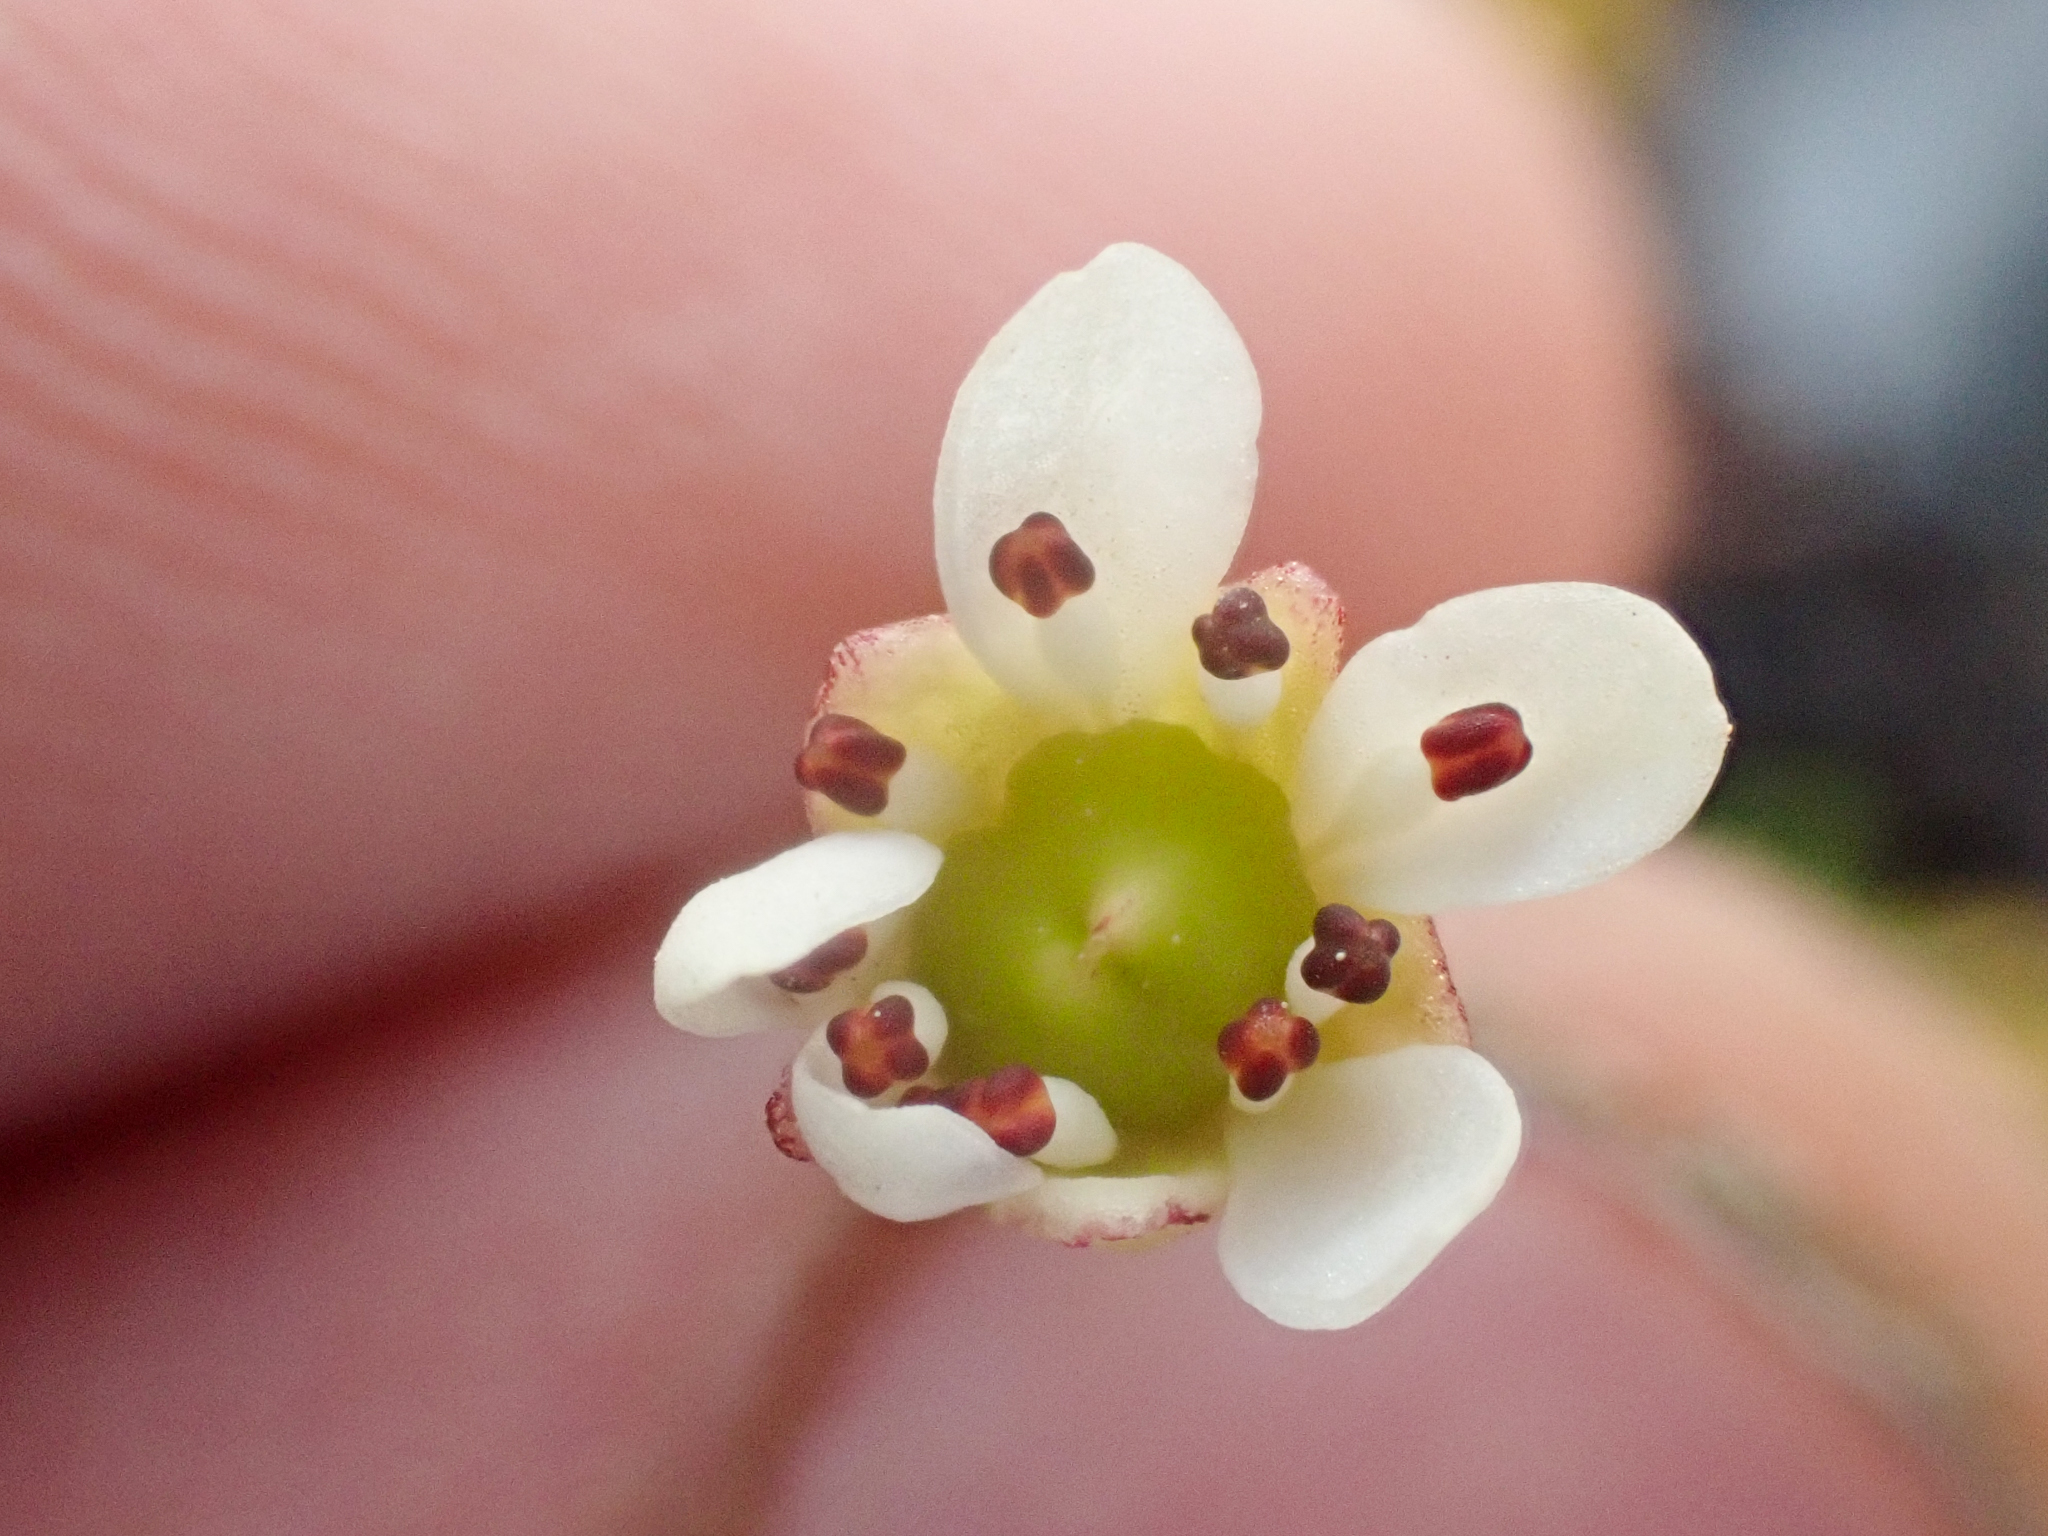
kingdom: Plantae
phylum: Tracheophyta
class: Magnoliopsida
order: Saxifragales
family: Saxifragaceae
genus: Micranthes
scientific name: Micranthes tolmiei
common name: Tolmie's saxifrage
